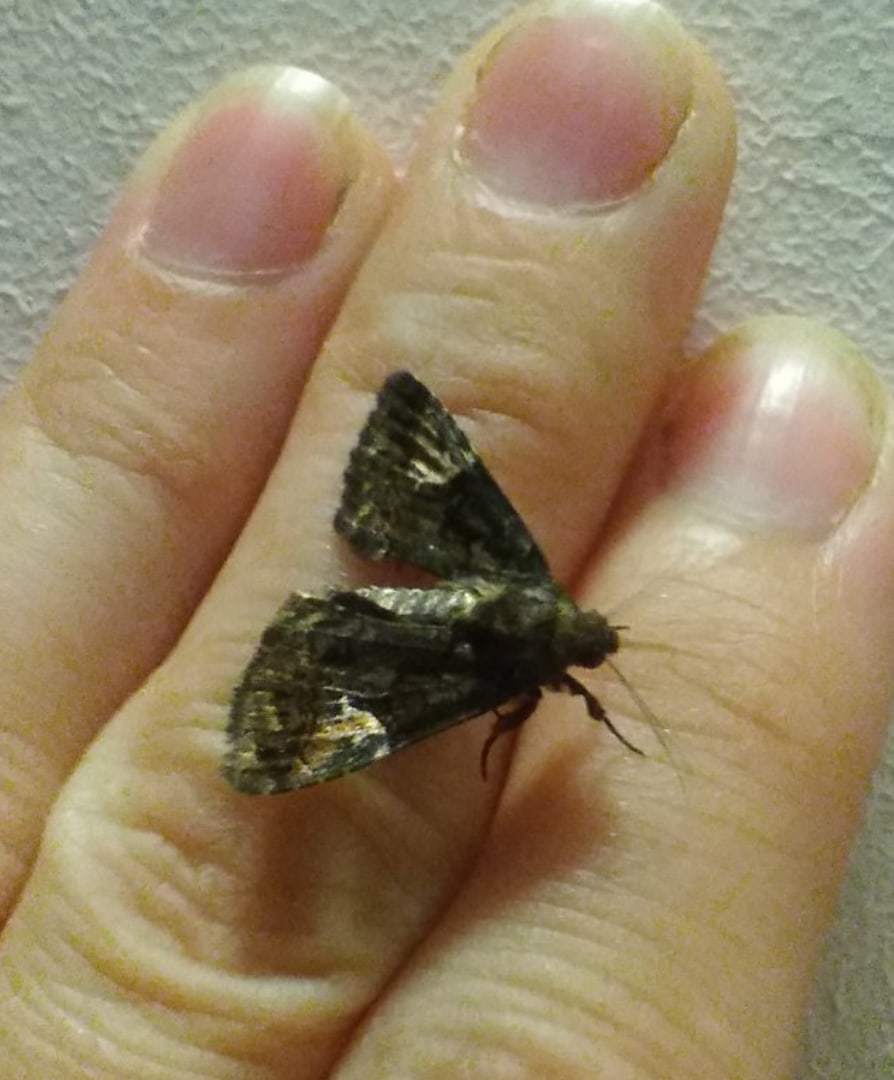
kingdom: Animalia
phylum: Arthropoda
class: Insecta
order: Lepidoptera
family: Noctuidae
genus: Aedia
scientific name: Aedia funesta
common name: The druid
